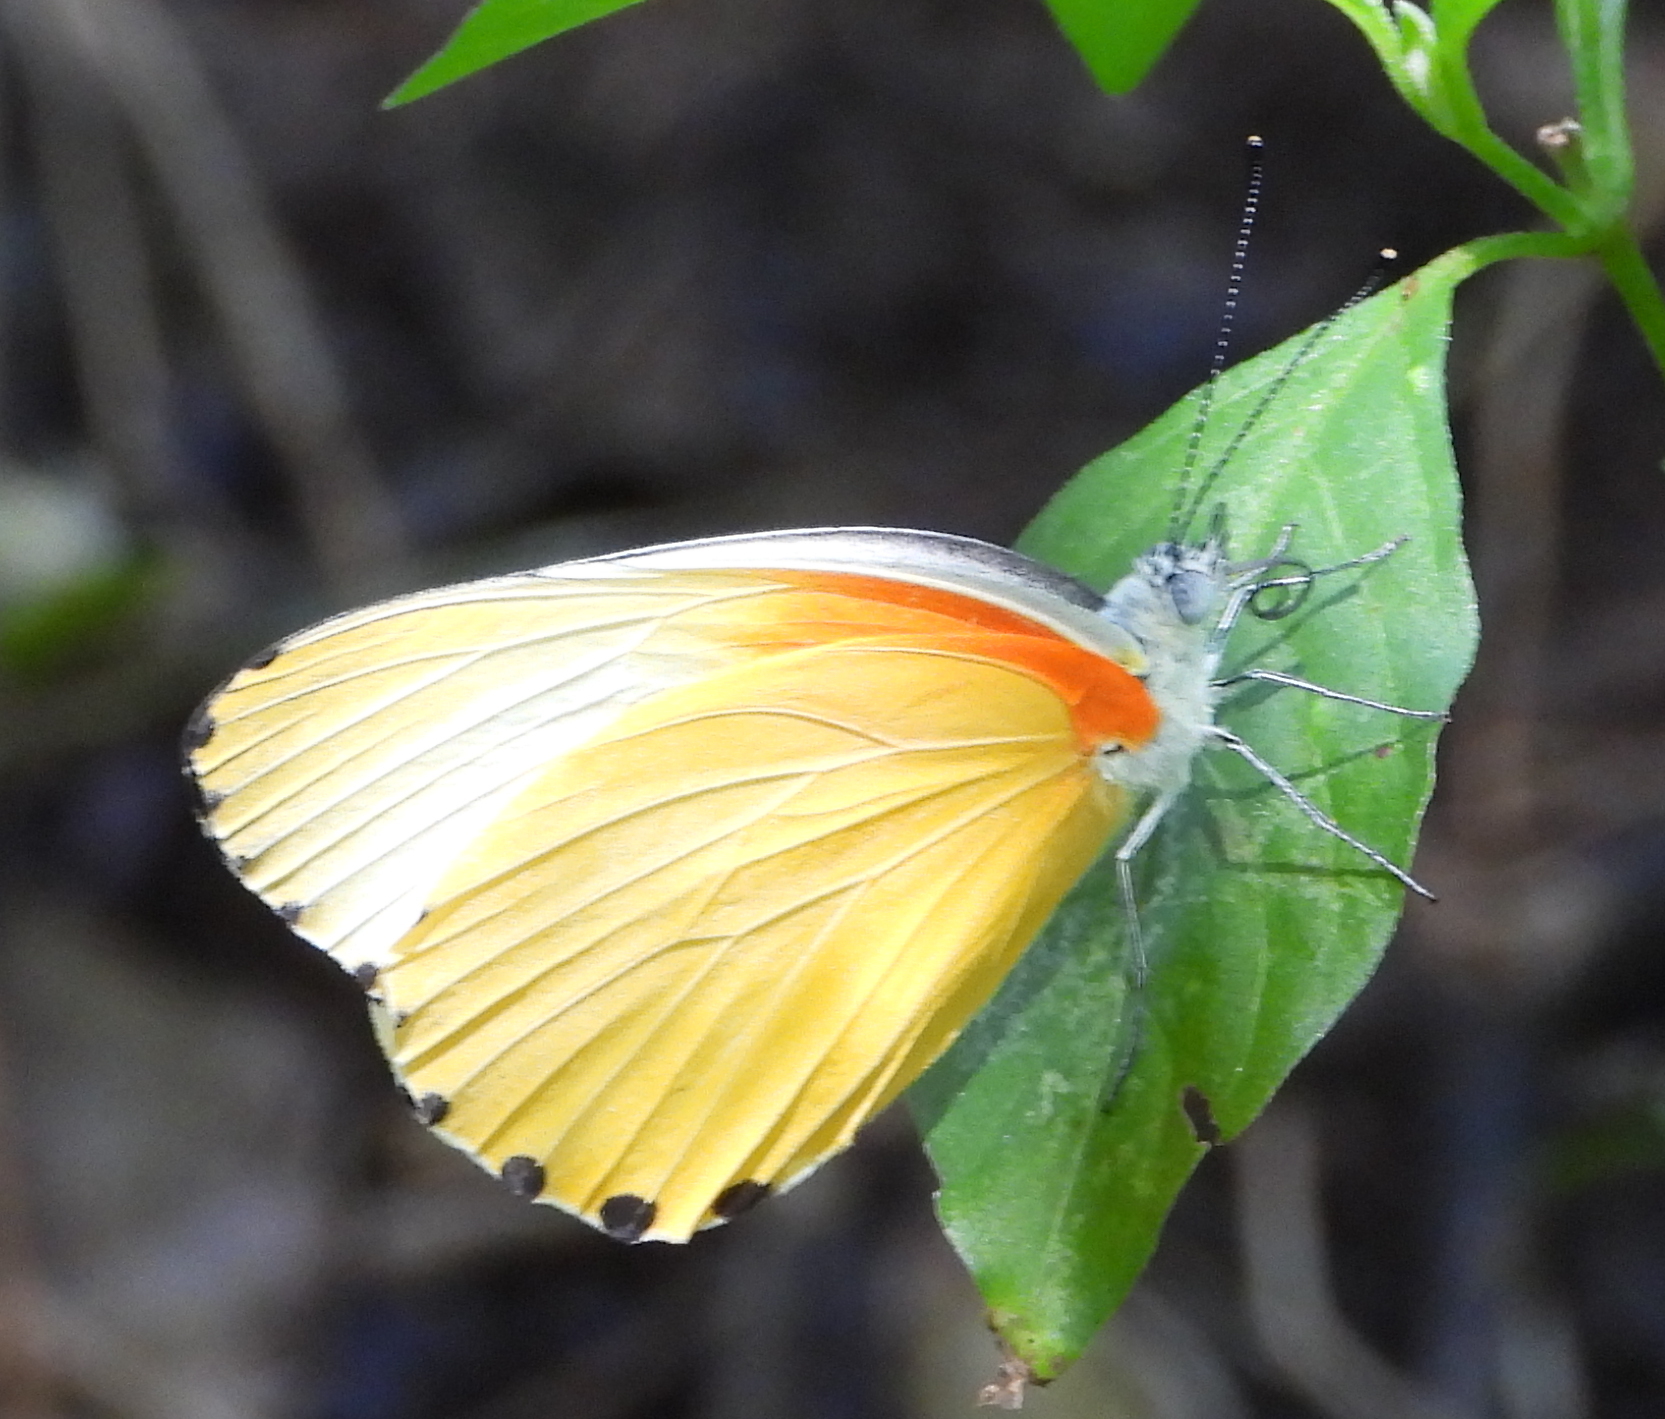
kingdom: Animalia
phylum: Arthropoda
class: Insecta
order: Lepidoptera
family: Pieridae
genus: Mylothris
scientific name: Mylothris agathina
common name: Eastern dotted border
